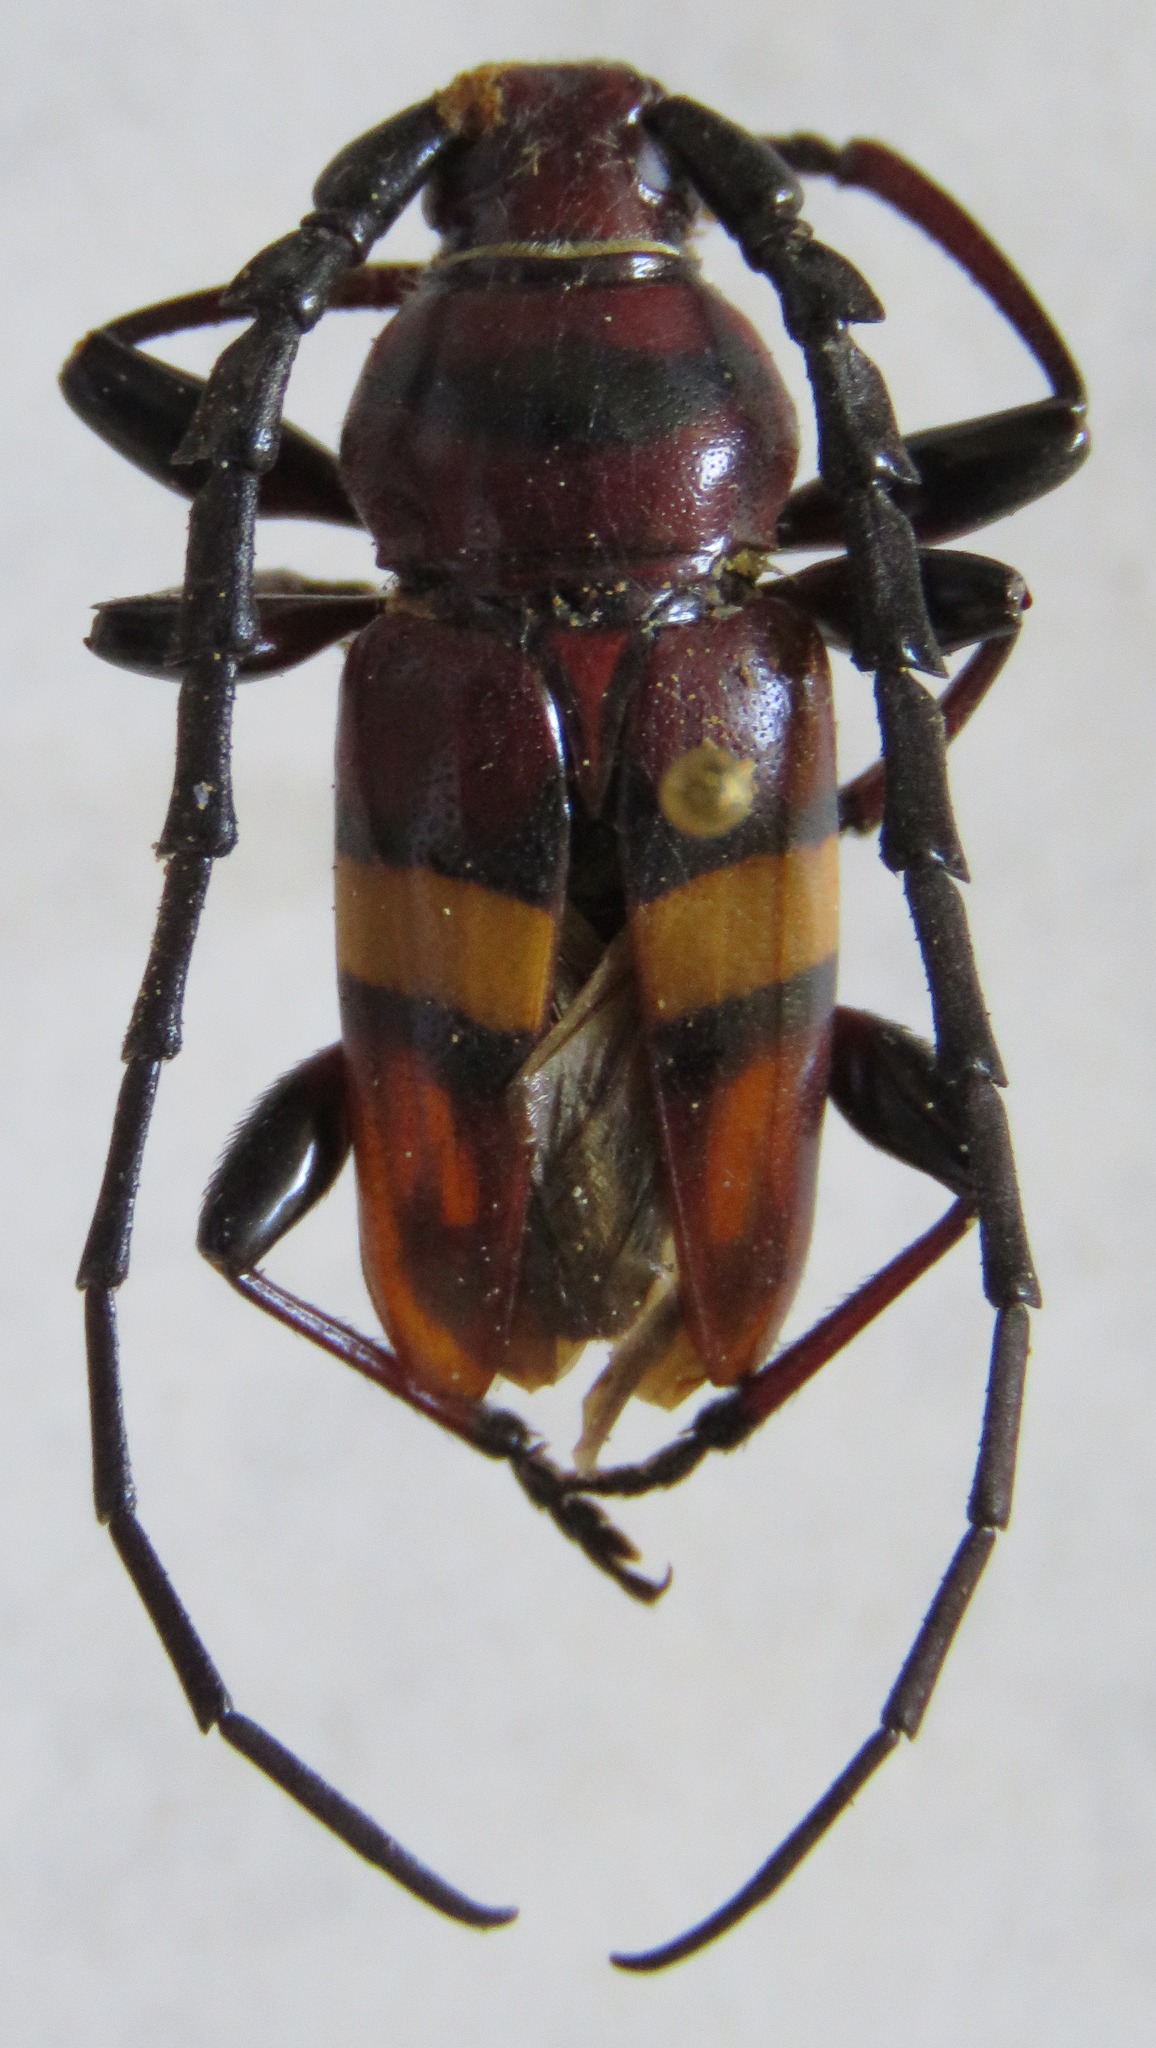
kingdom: Animalia
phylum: Arthropoda
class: Insecta
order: Coleoptera
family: Cerambycidae
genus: Lissonotus
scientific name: Lissonotus flavocinctus
